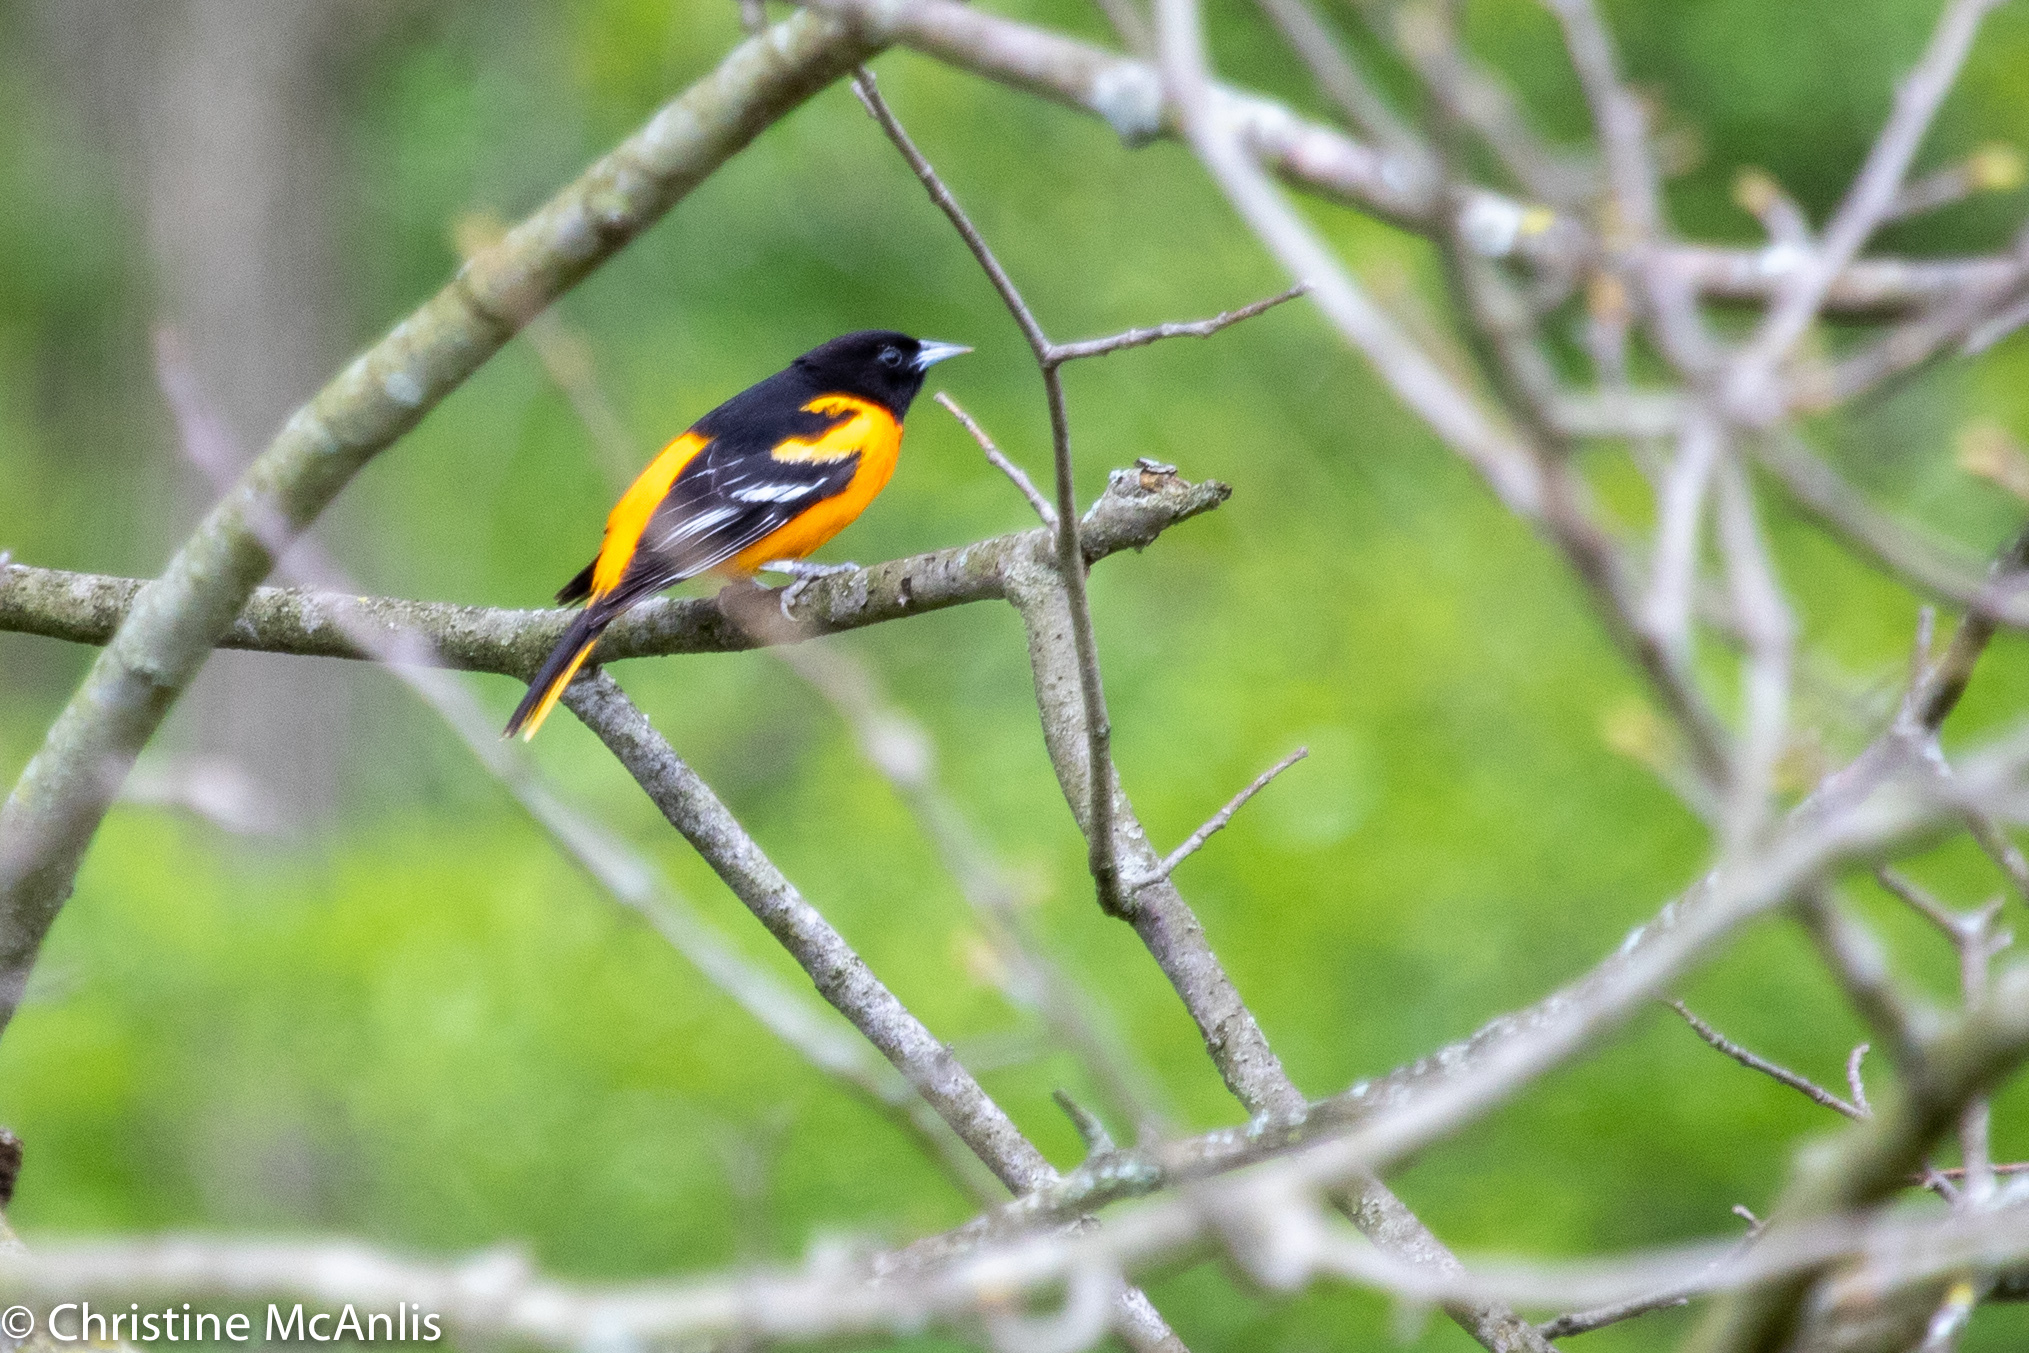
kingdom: Animalia
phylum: Chordata
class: Aves
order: Passeriformes
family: Icteridae
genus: Icterus
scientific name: Icterus galbula
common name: Baltimore oriole
